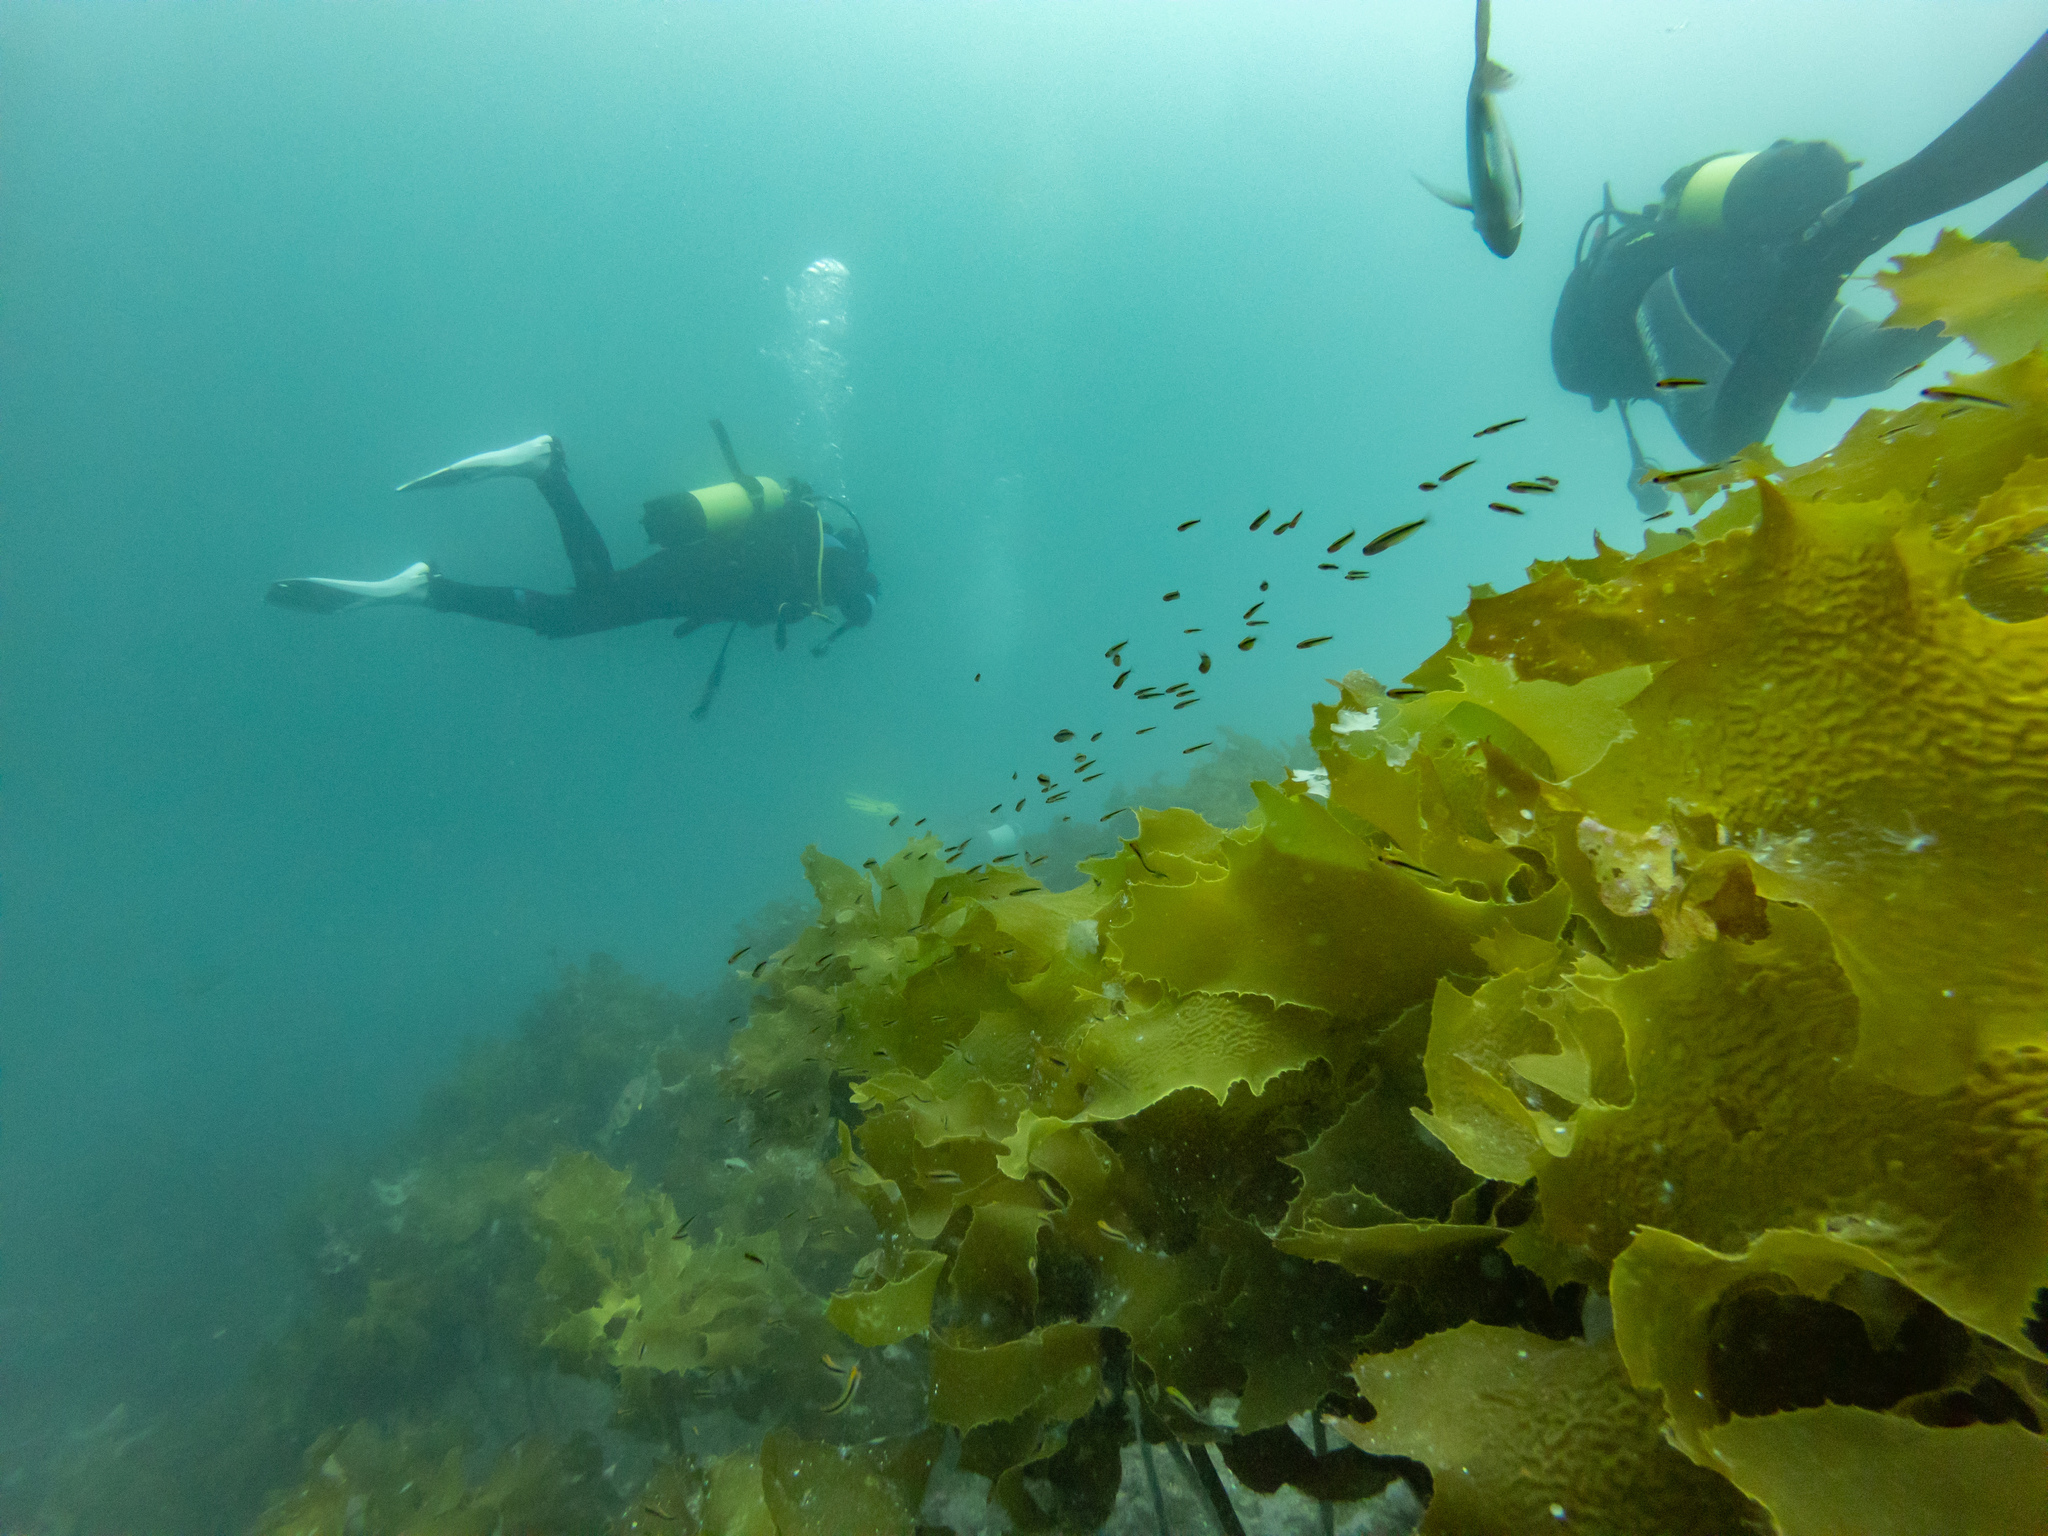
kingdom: Animalia
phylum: Chordata
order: Perciformes
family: Tripterygiidae
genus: Forsterygion
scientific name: Forsterygion maryannae
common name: Oblique-swimming triplefin
